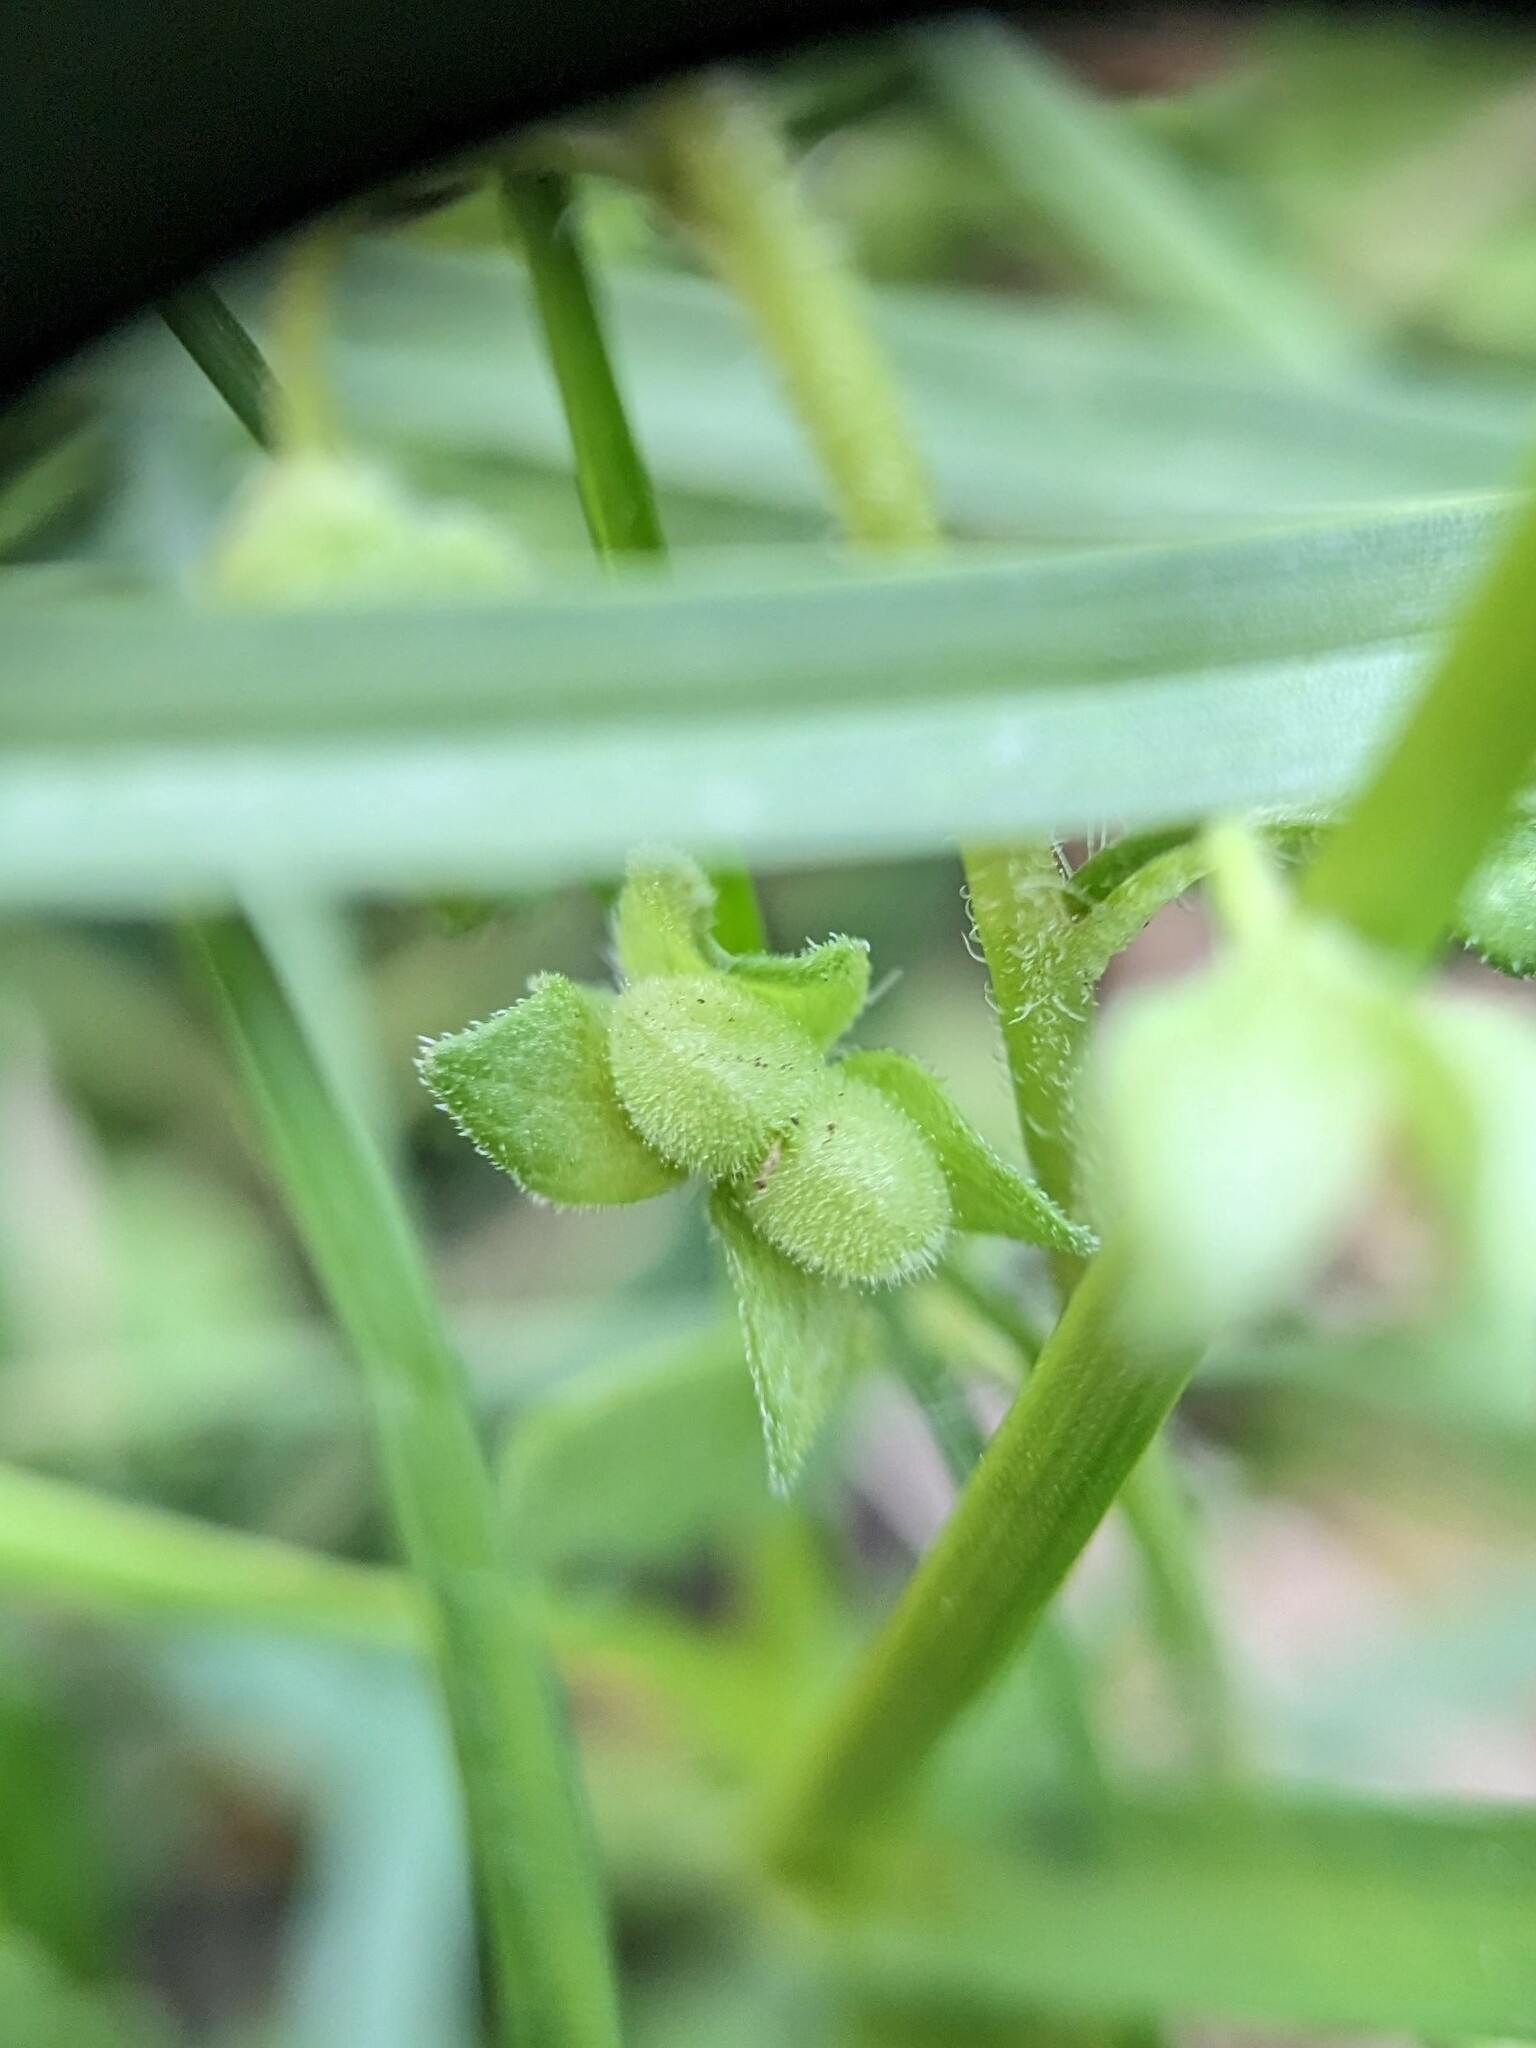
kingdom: Plantae
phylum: Tracheophyta
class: Magnoliopsida
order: Lamiales
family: Plantaginaceae
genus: Veronica
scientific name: Veronica polita
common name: Grey field-speedwell
